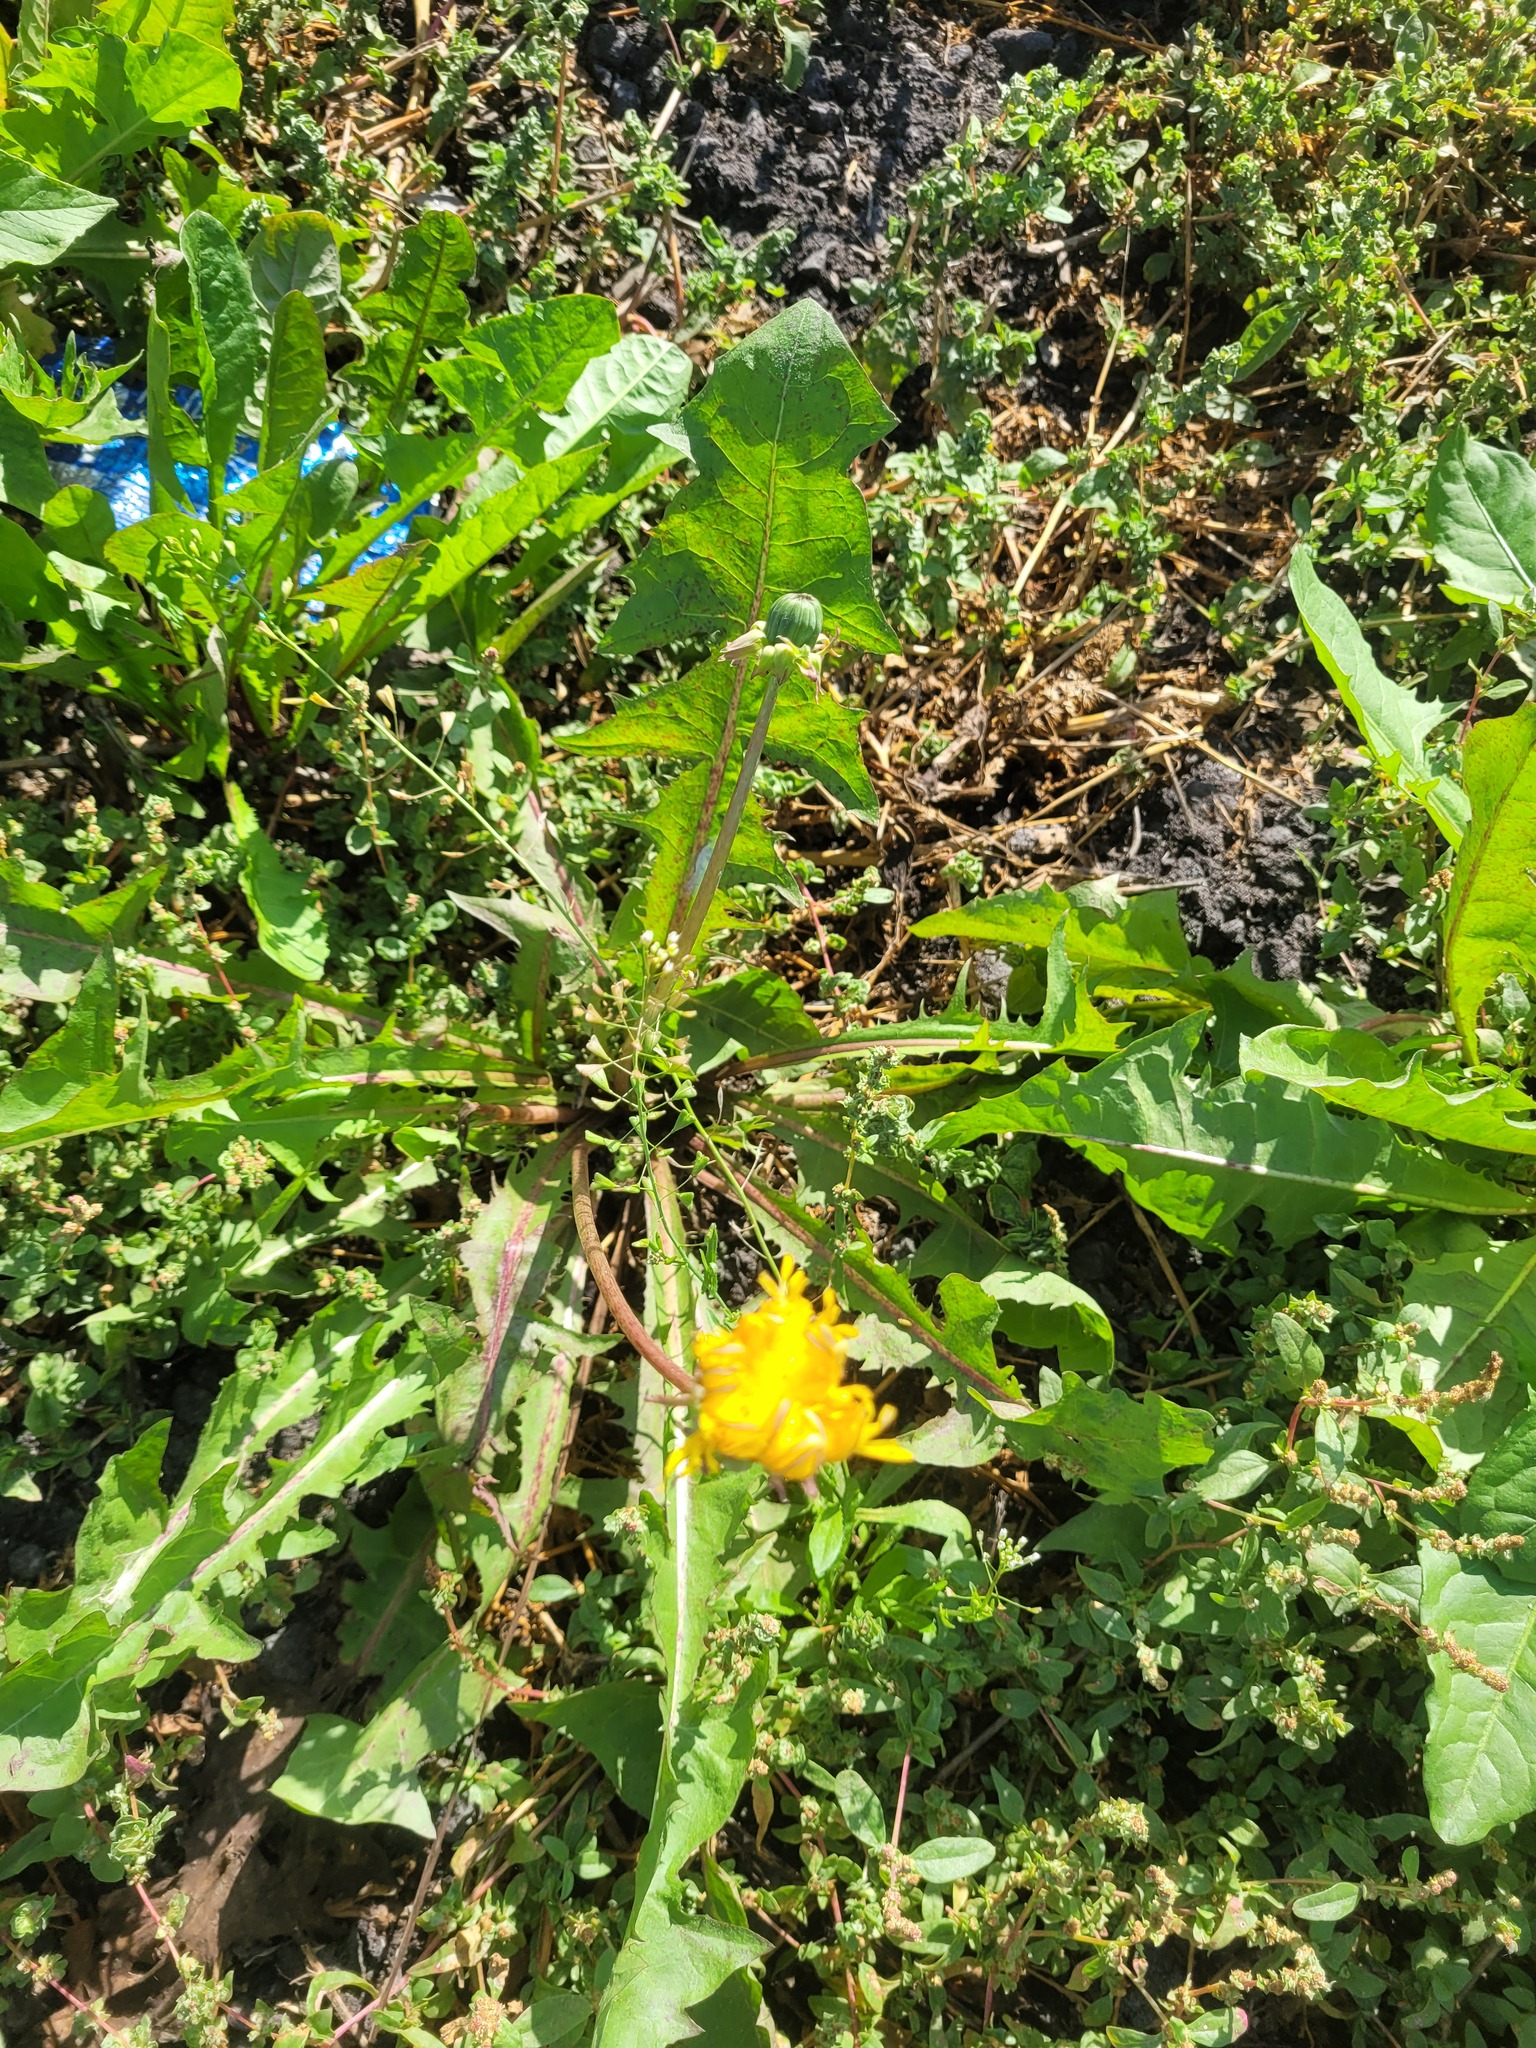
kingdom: Plantae
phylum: Tracheophyta
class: Magnoliopsida
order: Brassicales
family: Brassicaceae
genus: Capsella
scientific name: Capsella bursa-pastoris
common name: Shepherd's purse
